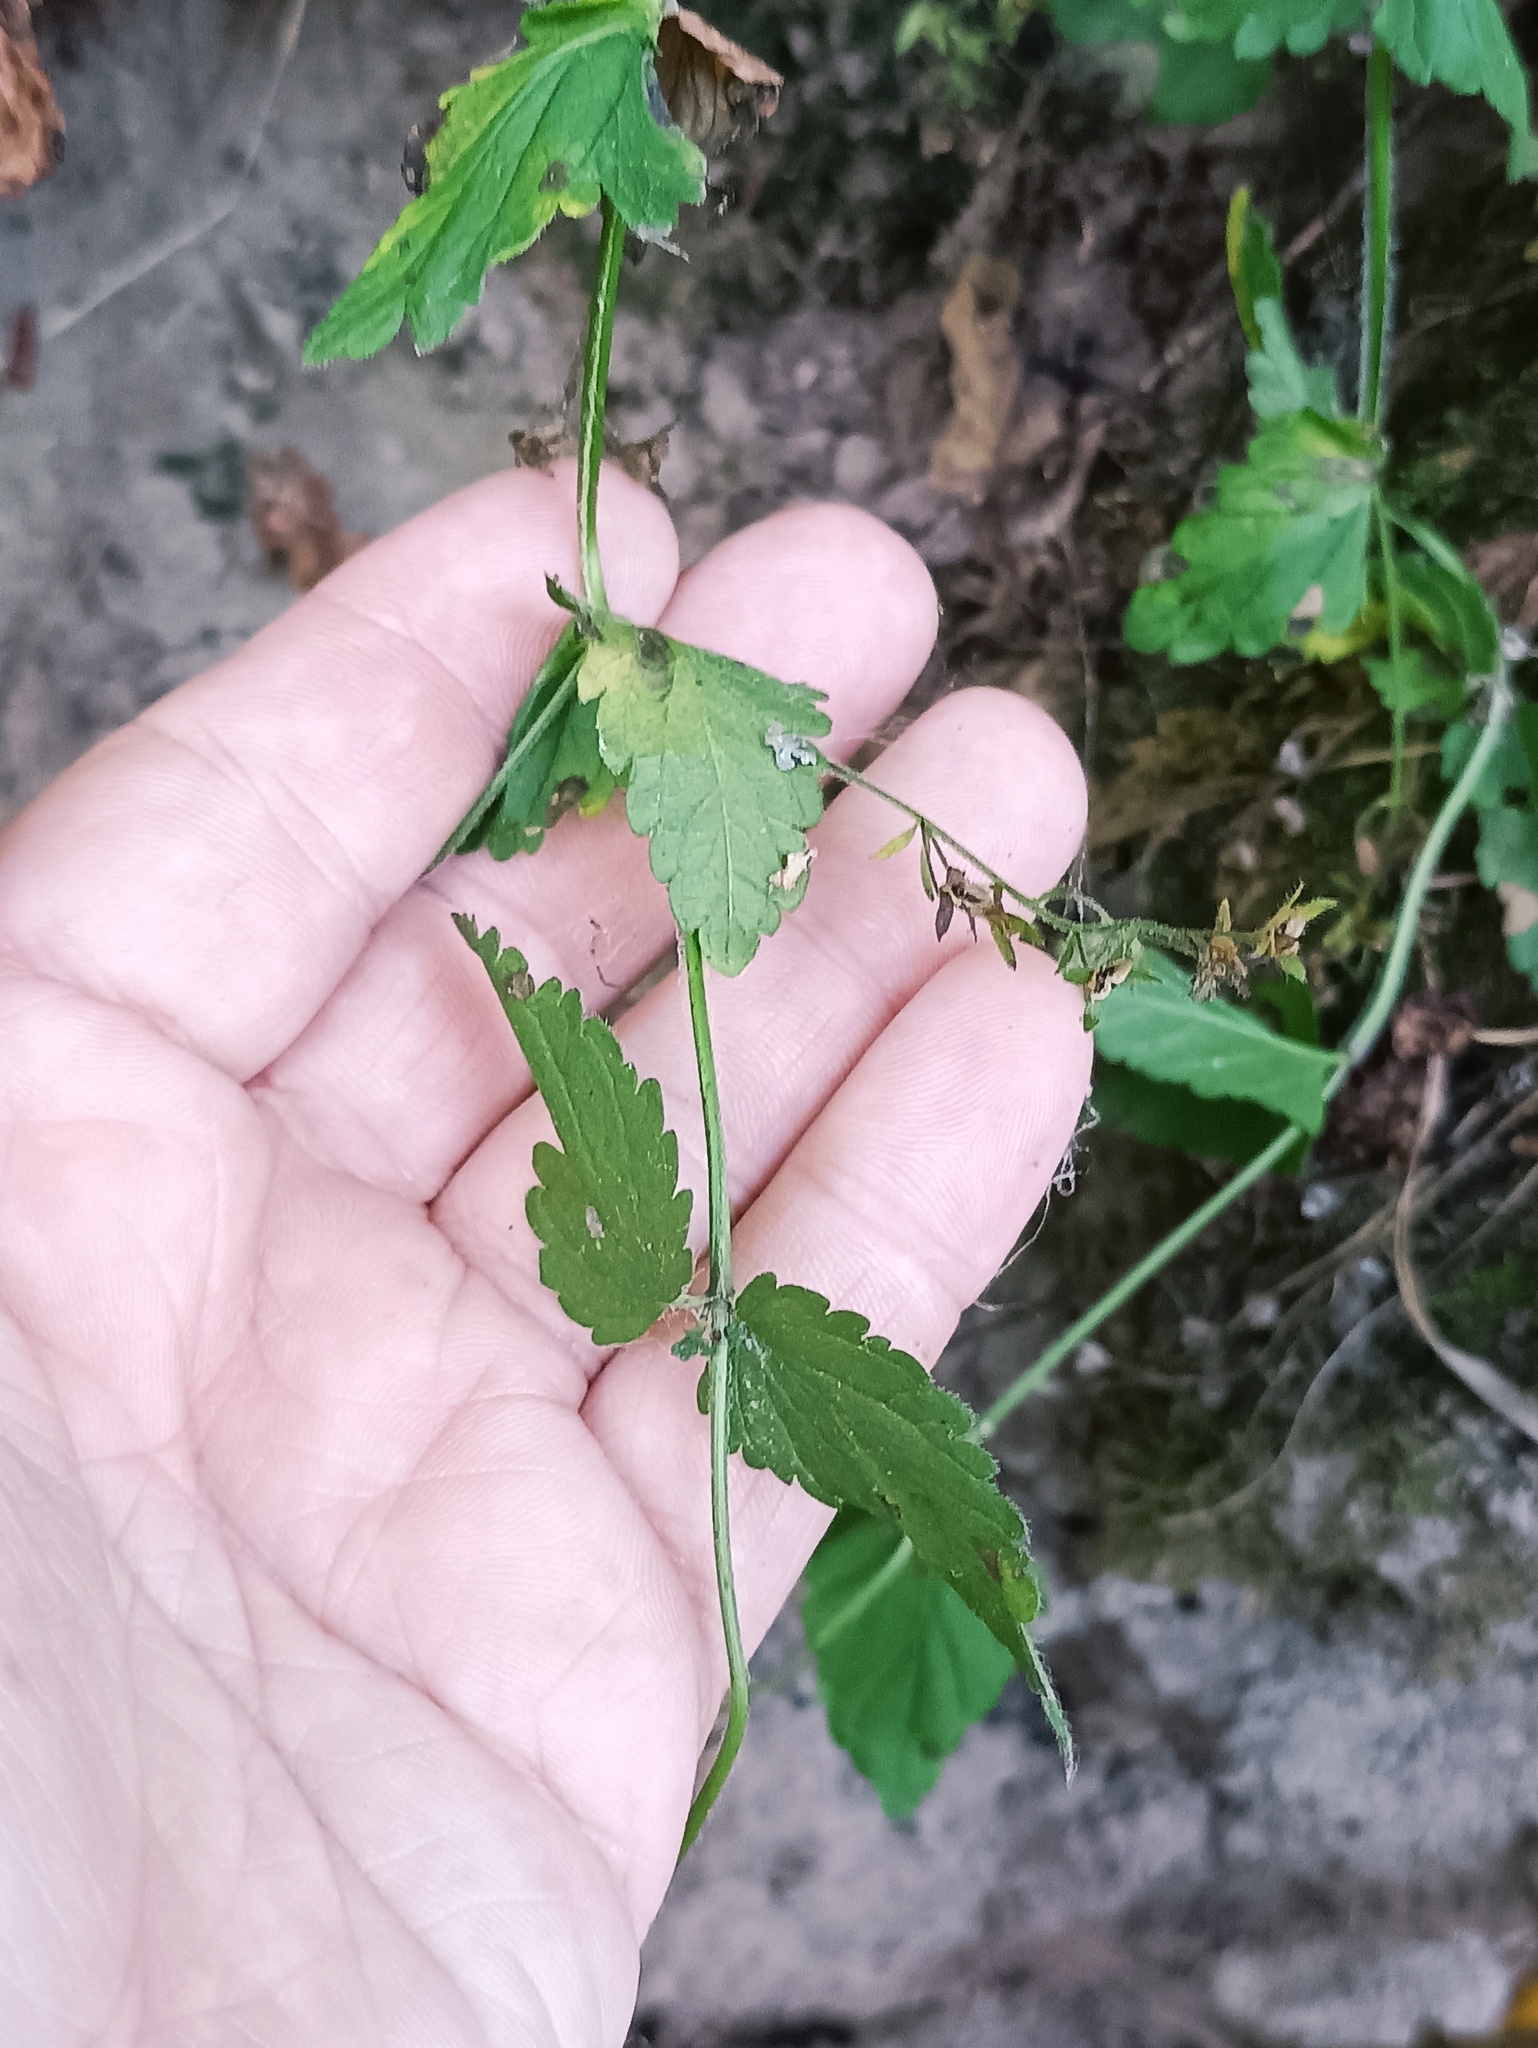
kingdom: Plantae
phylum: Tracheophyta
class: Magnoliopsida
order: Lamiales
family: Plantaginaceae
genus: Veronica
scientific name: Veronica chamaedrys
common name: Germander speedwell
